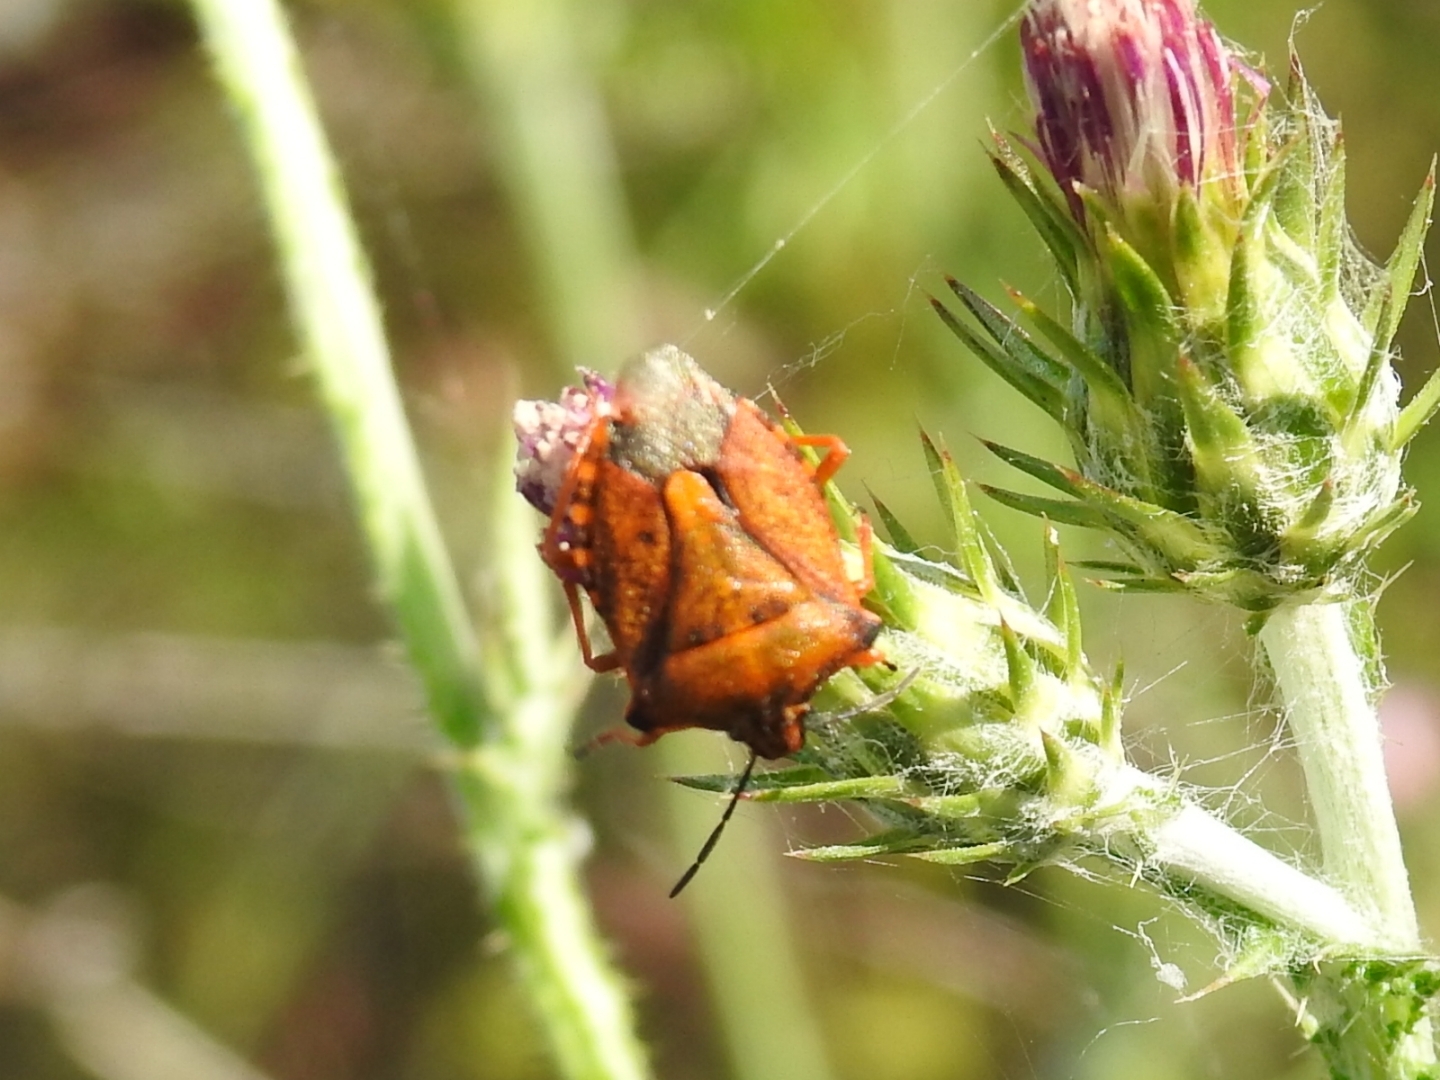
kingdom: Animalia
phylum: Arthropoda
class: Insecta
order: Hemiptera
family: Pentatomidae
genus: Carpocoris
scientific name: Carpocoris mediterraneus
